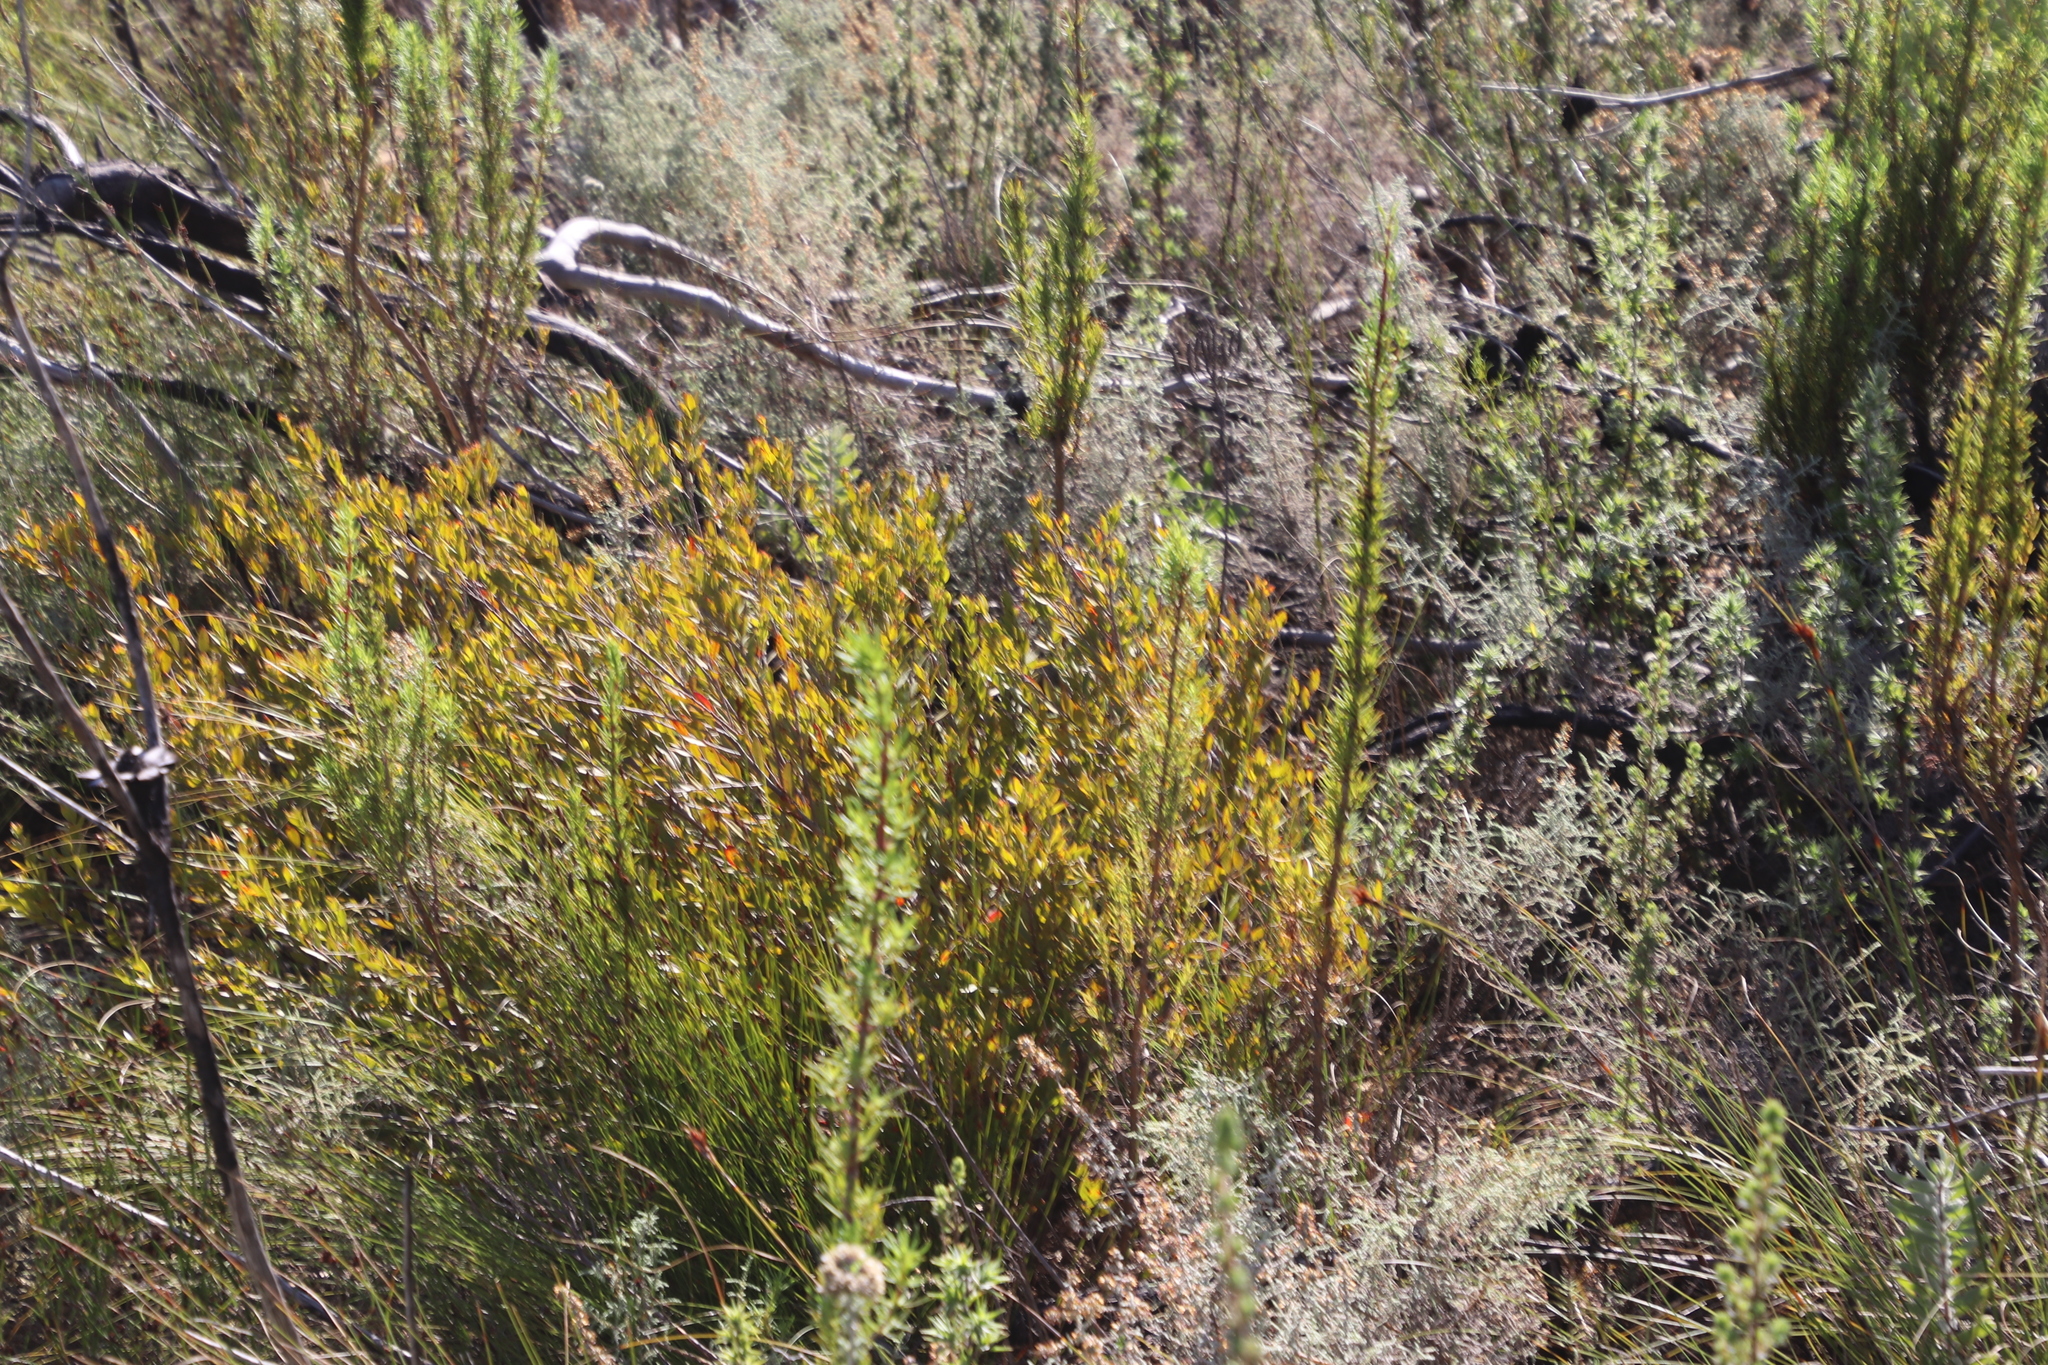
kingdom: Plantae
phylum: Tracheophyta
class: Magnoliopsida
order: Solanales
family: Montiniaceae
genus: Montinia
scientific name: Montinia caryophyllacea
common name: Wild clove-bush
